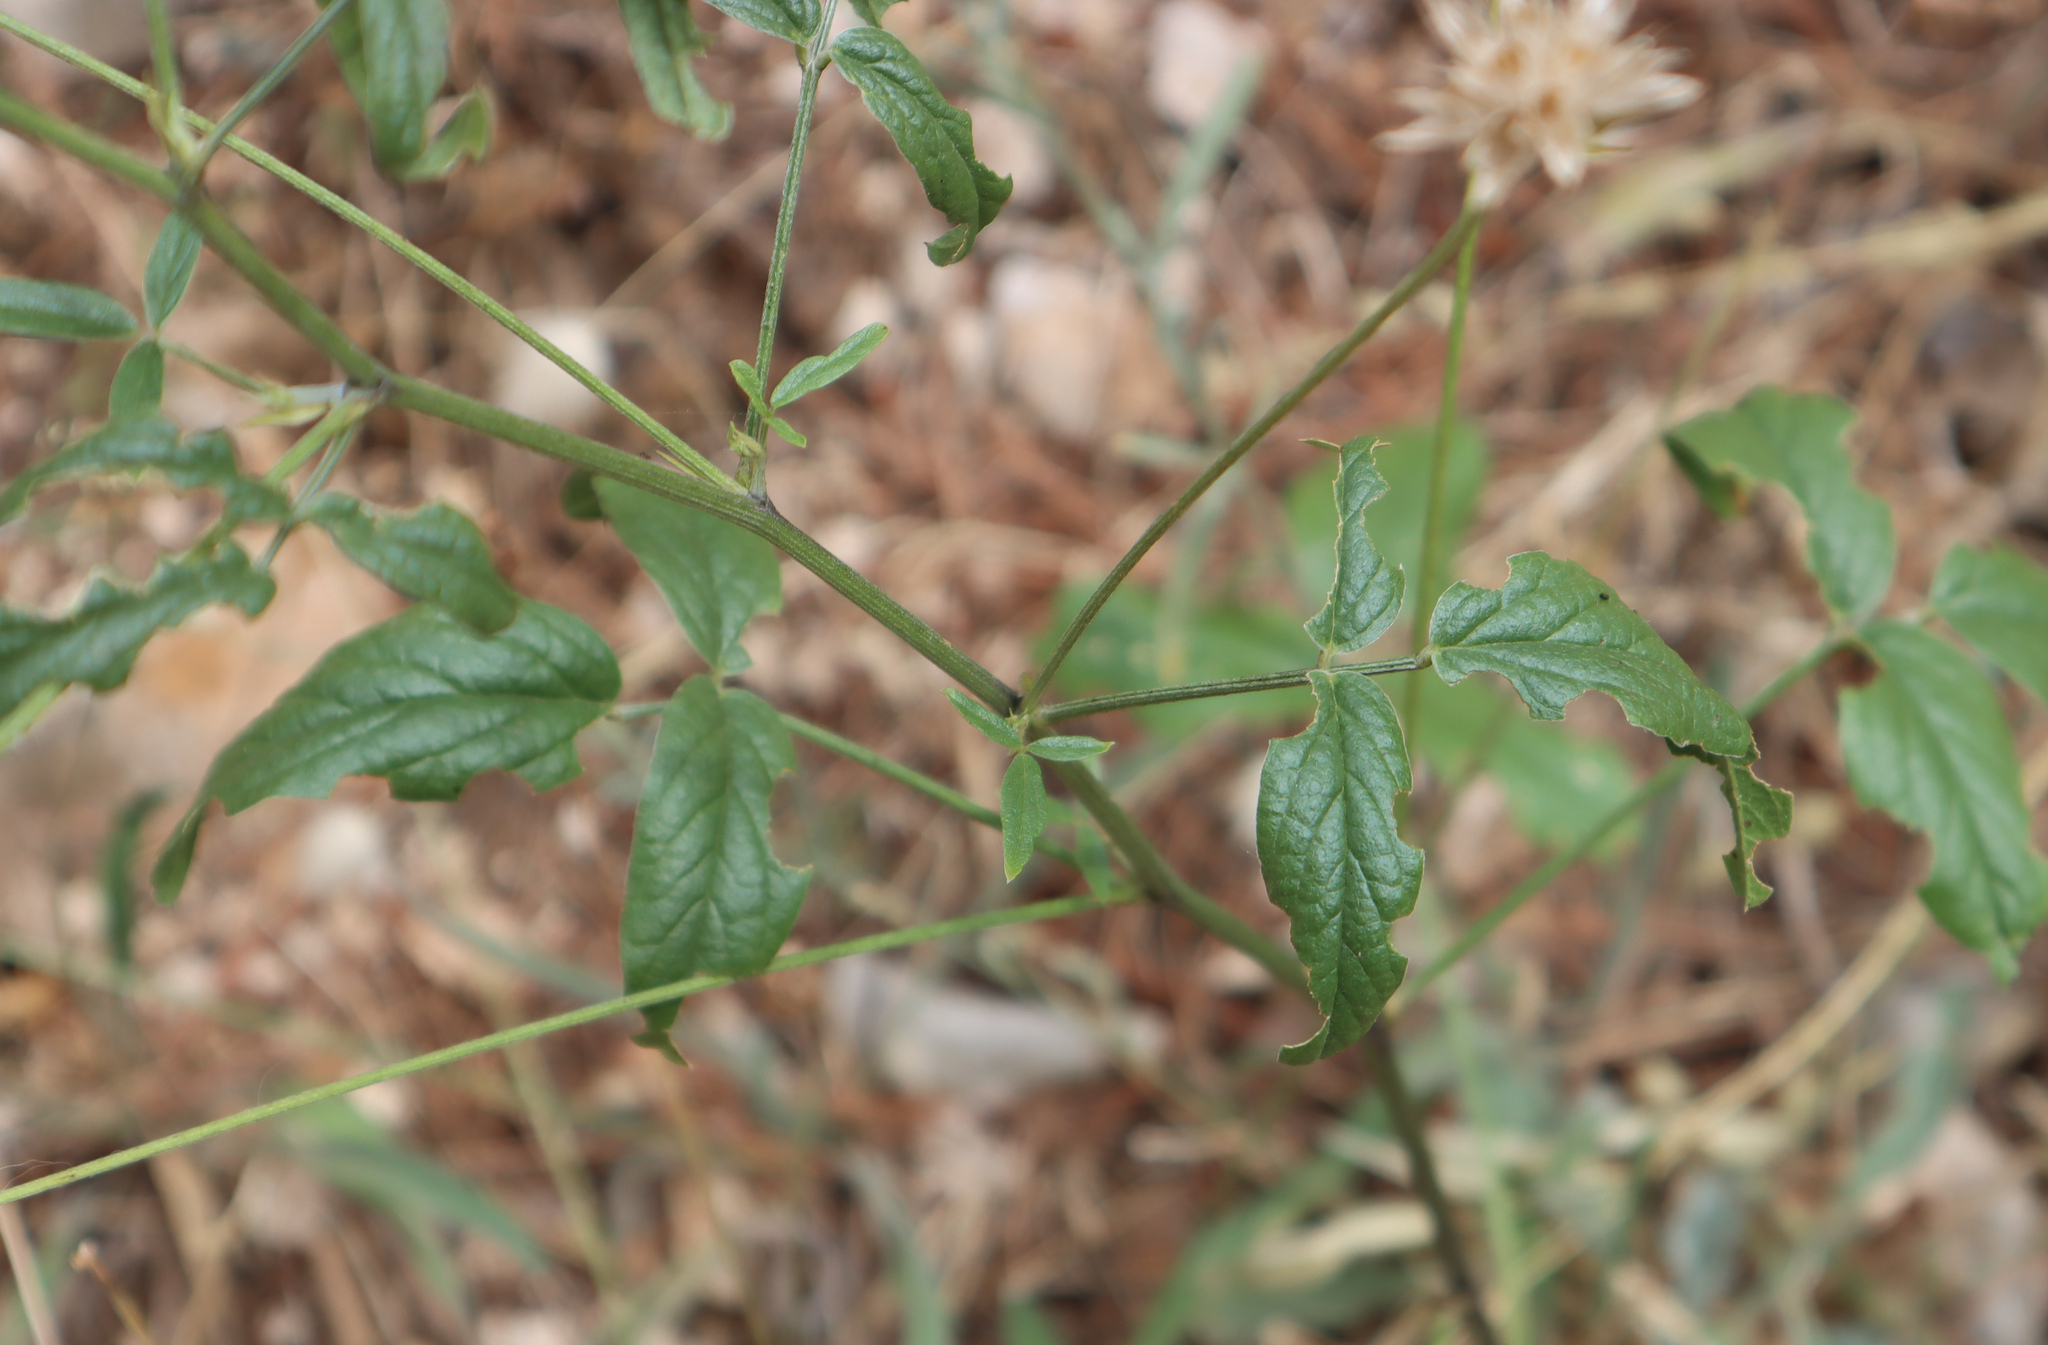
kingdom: Plantae
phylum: Tracheophyta
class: Magnoliopsida
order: Fabales
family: Fabaceae
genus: Bituminaria
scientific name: Bituminaria bituminosa
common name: Arabian pea
